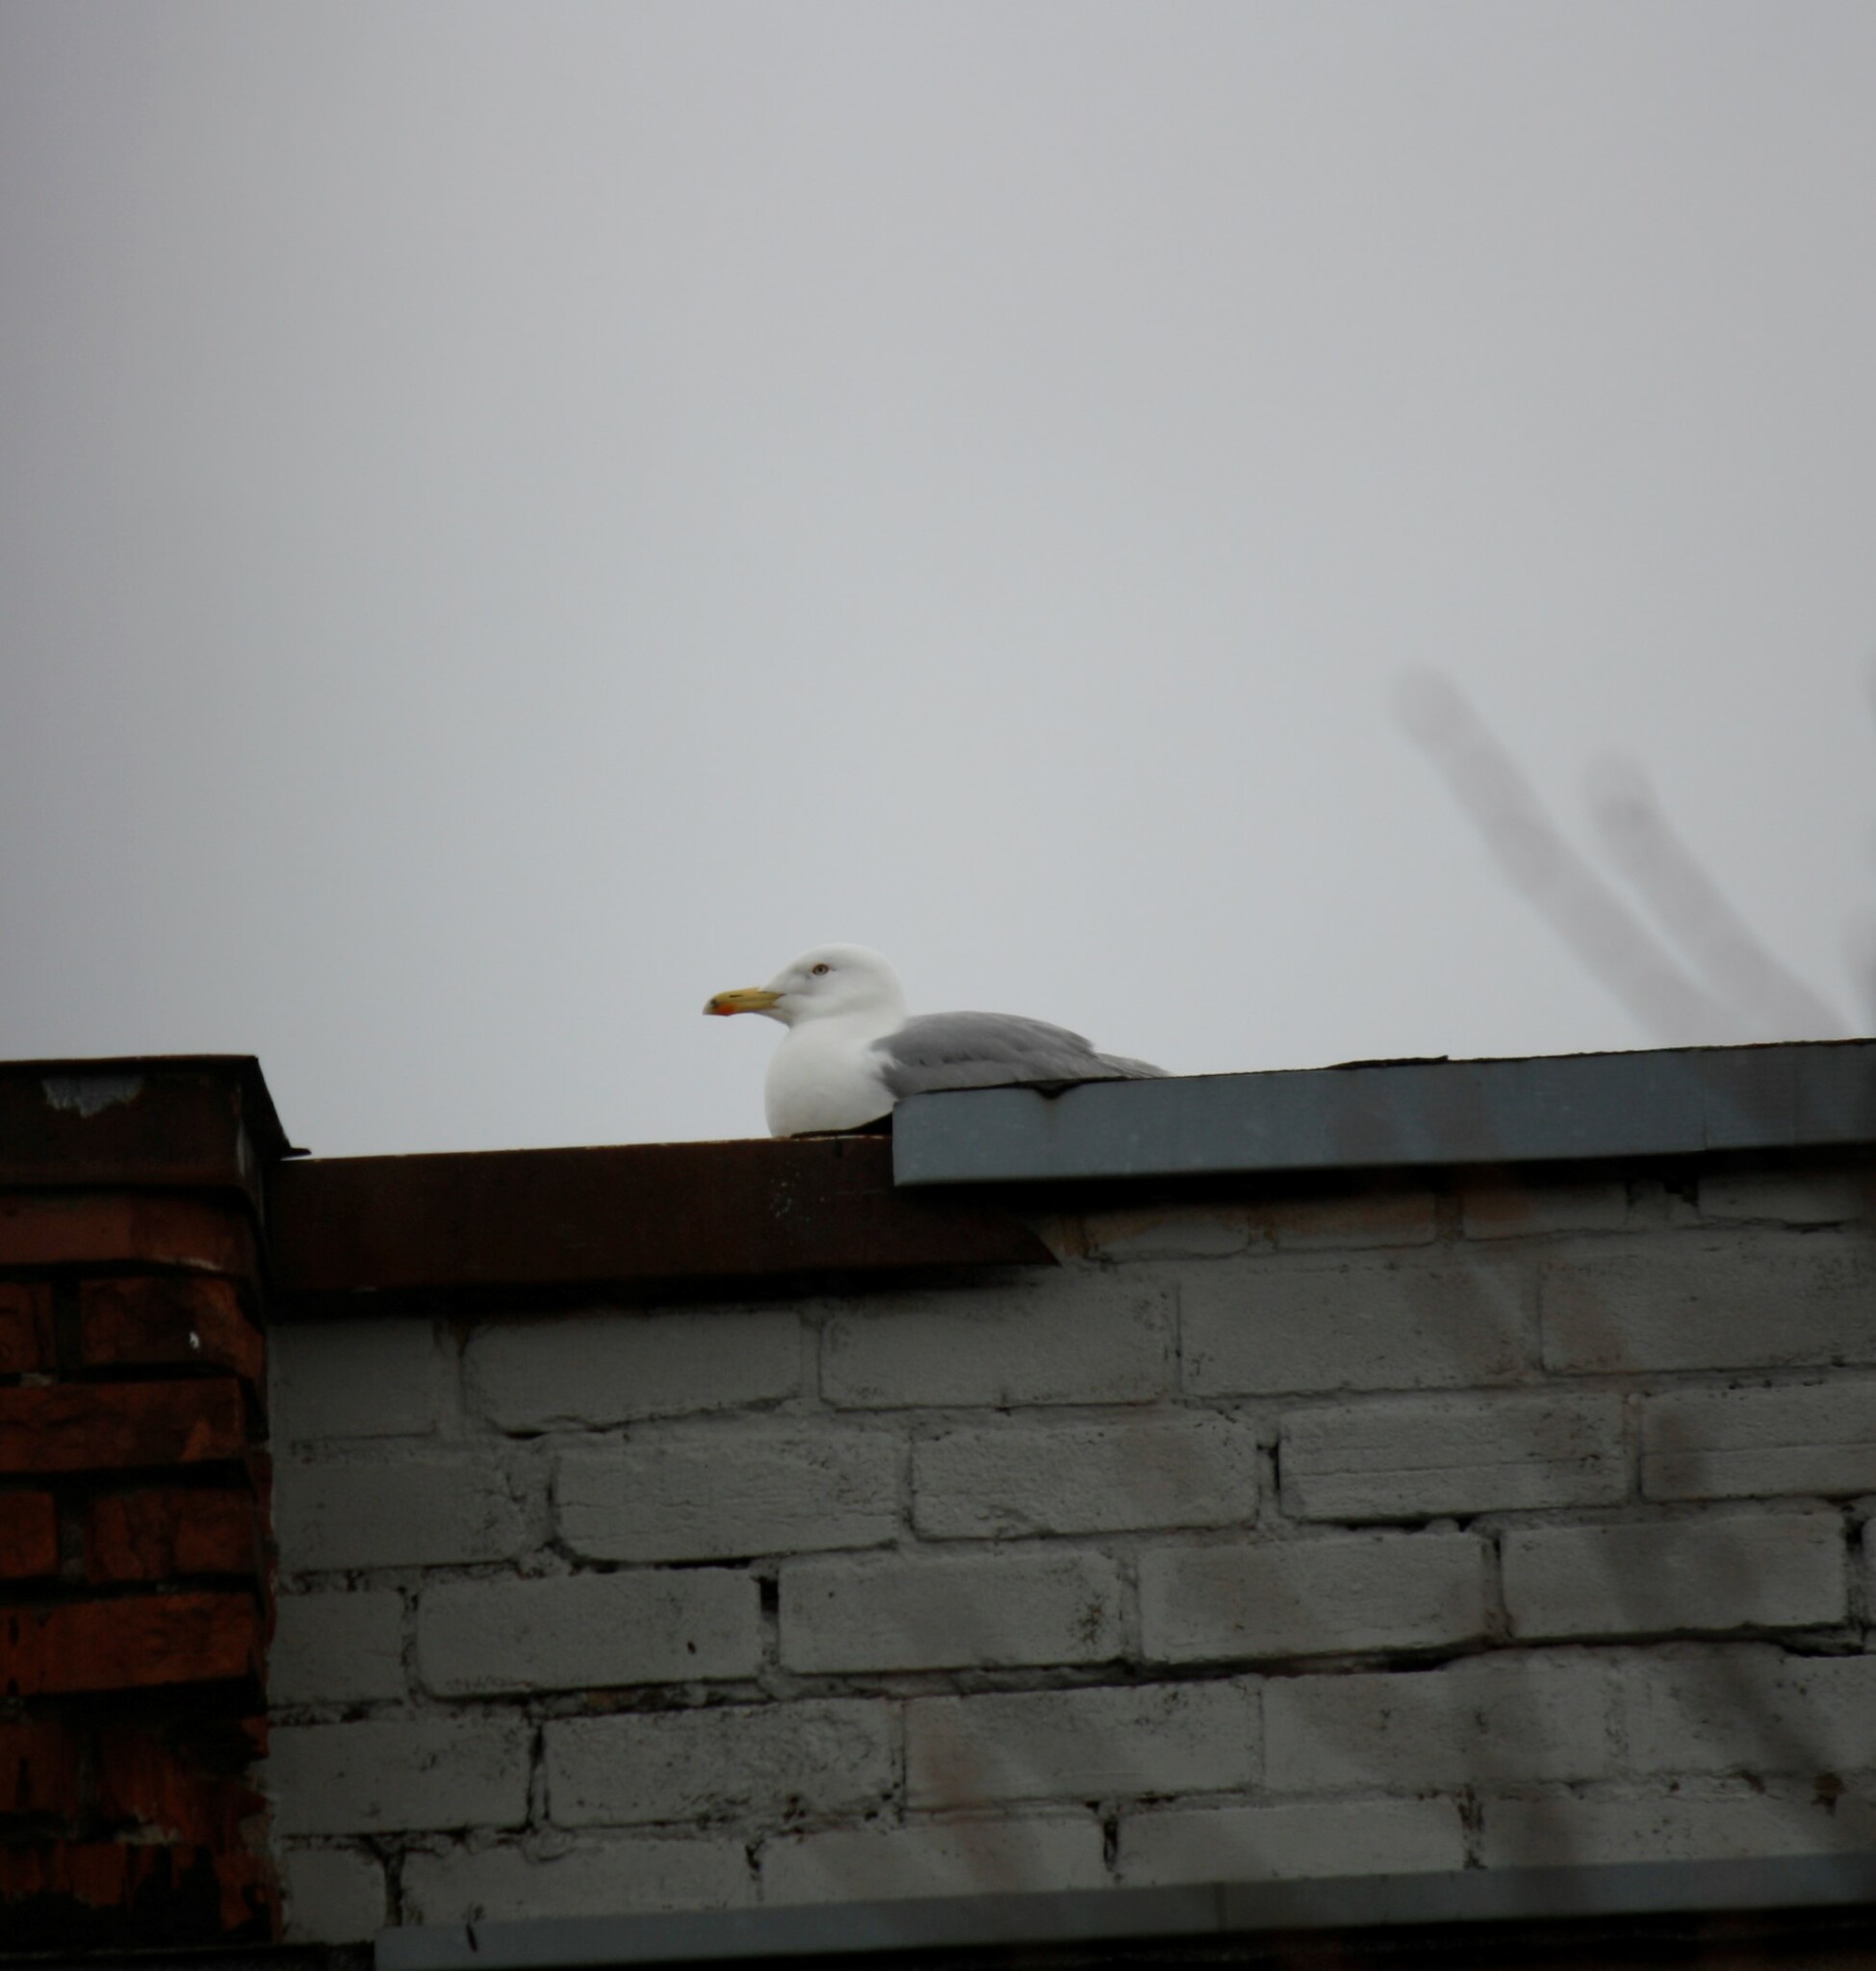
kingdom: Animalia
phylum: Chordata
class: Aves
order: Charadriiformes
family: Laridae
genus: Larus
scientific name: Larus argentatus
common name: Herring gull
